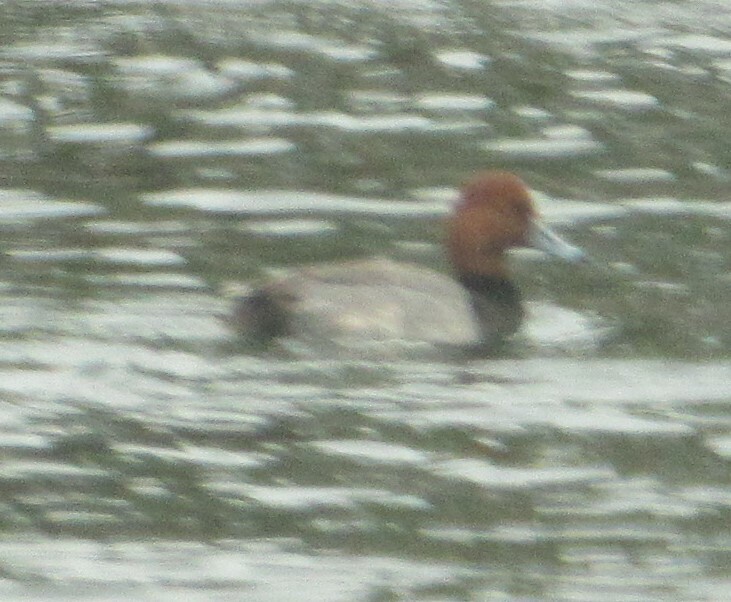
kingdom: Animalia
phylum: Chordata
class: Aves
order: Anseriformes
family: Anatidae
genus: Aythya
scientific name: Aythya americana
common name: Redhead
